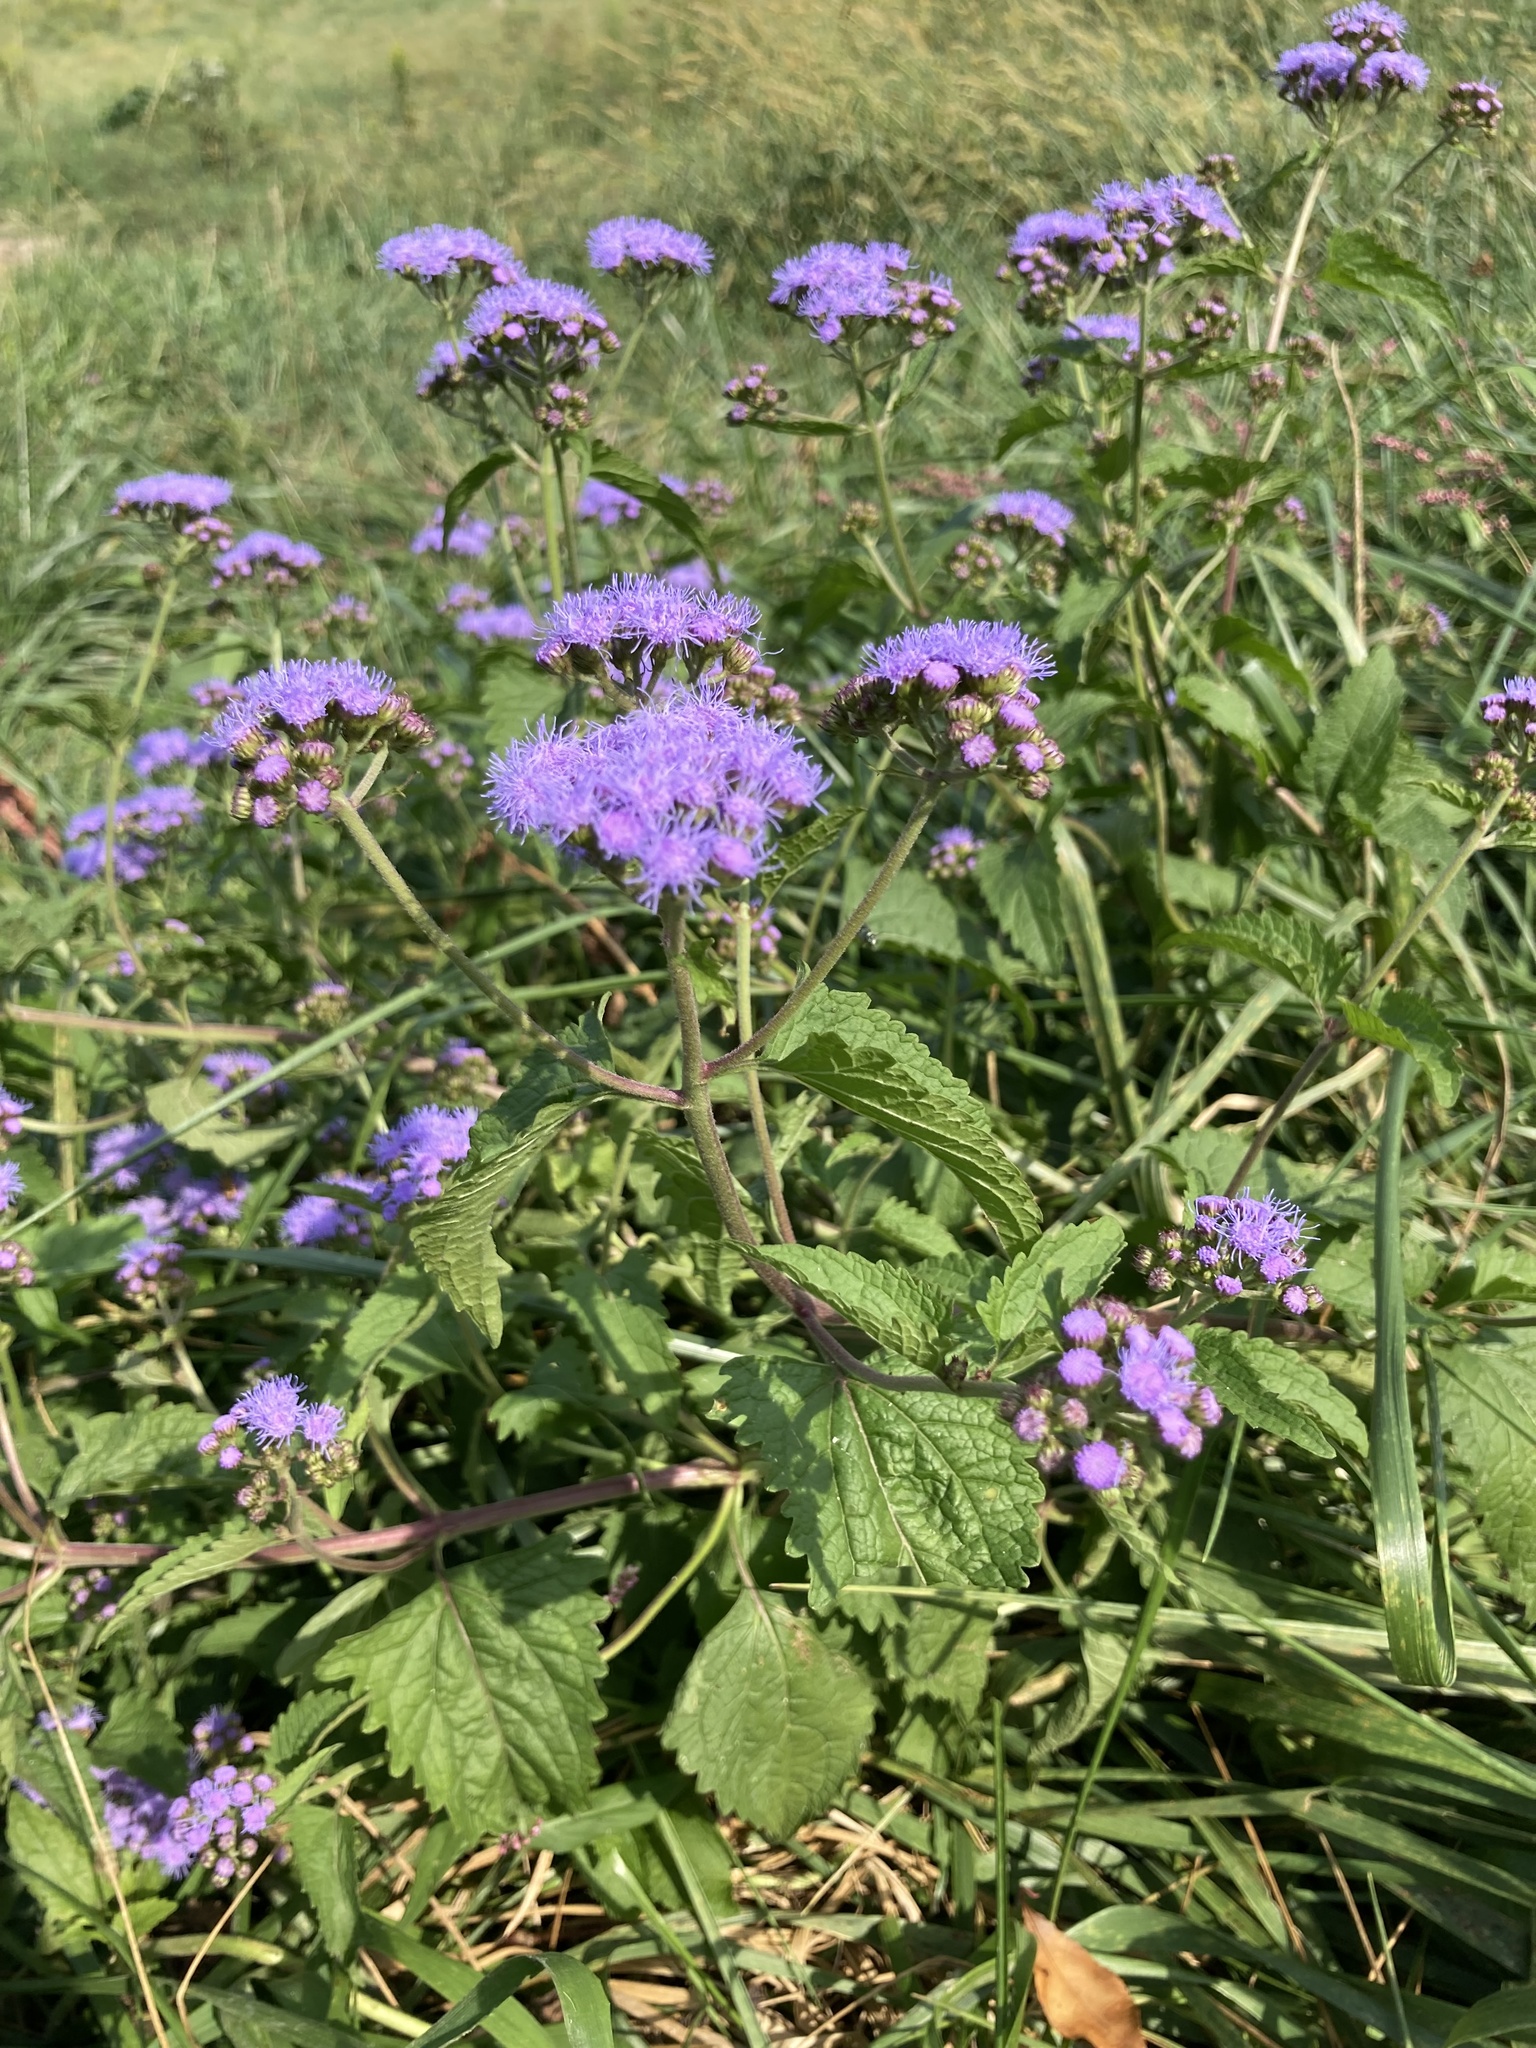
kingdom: Plantae
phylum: Tracheophyta
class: Magnoliopsida
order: Asterales
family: Asteraceae
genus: Conoclinium
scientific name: Conoclinium coelestinum
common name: Blue mistflower
